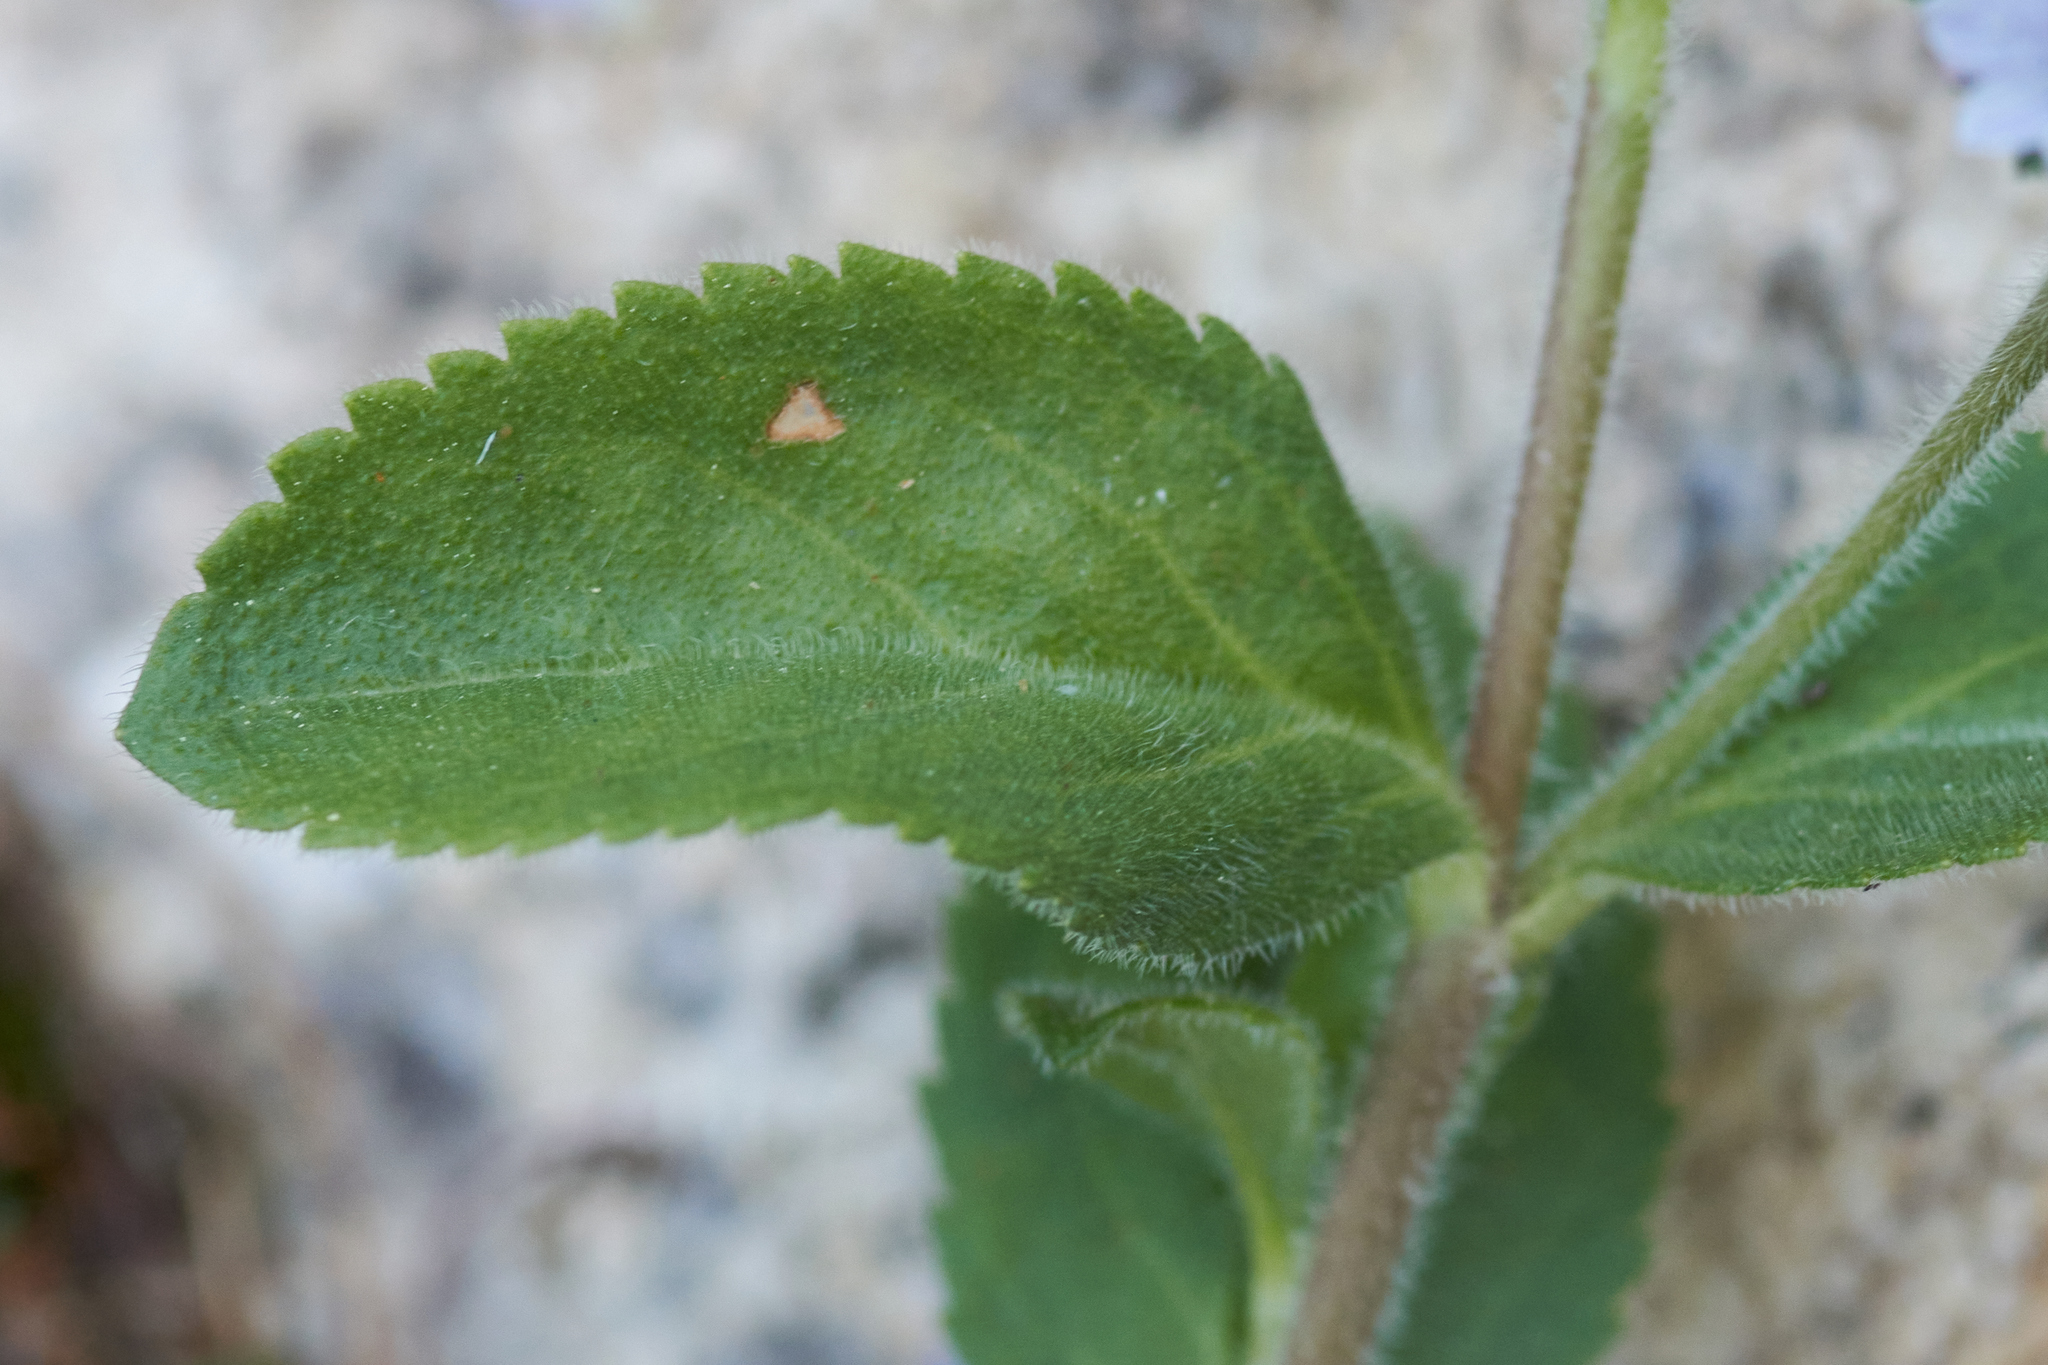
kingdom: Plantae
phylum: Tracheophyta
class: Magnoliopsida
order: Lamiales
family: Plantaginaceae
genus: Veronica
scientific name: Veronica officinalis
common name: Common speedwell
